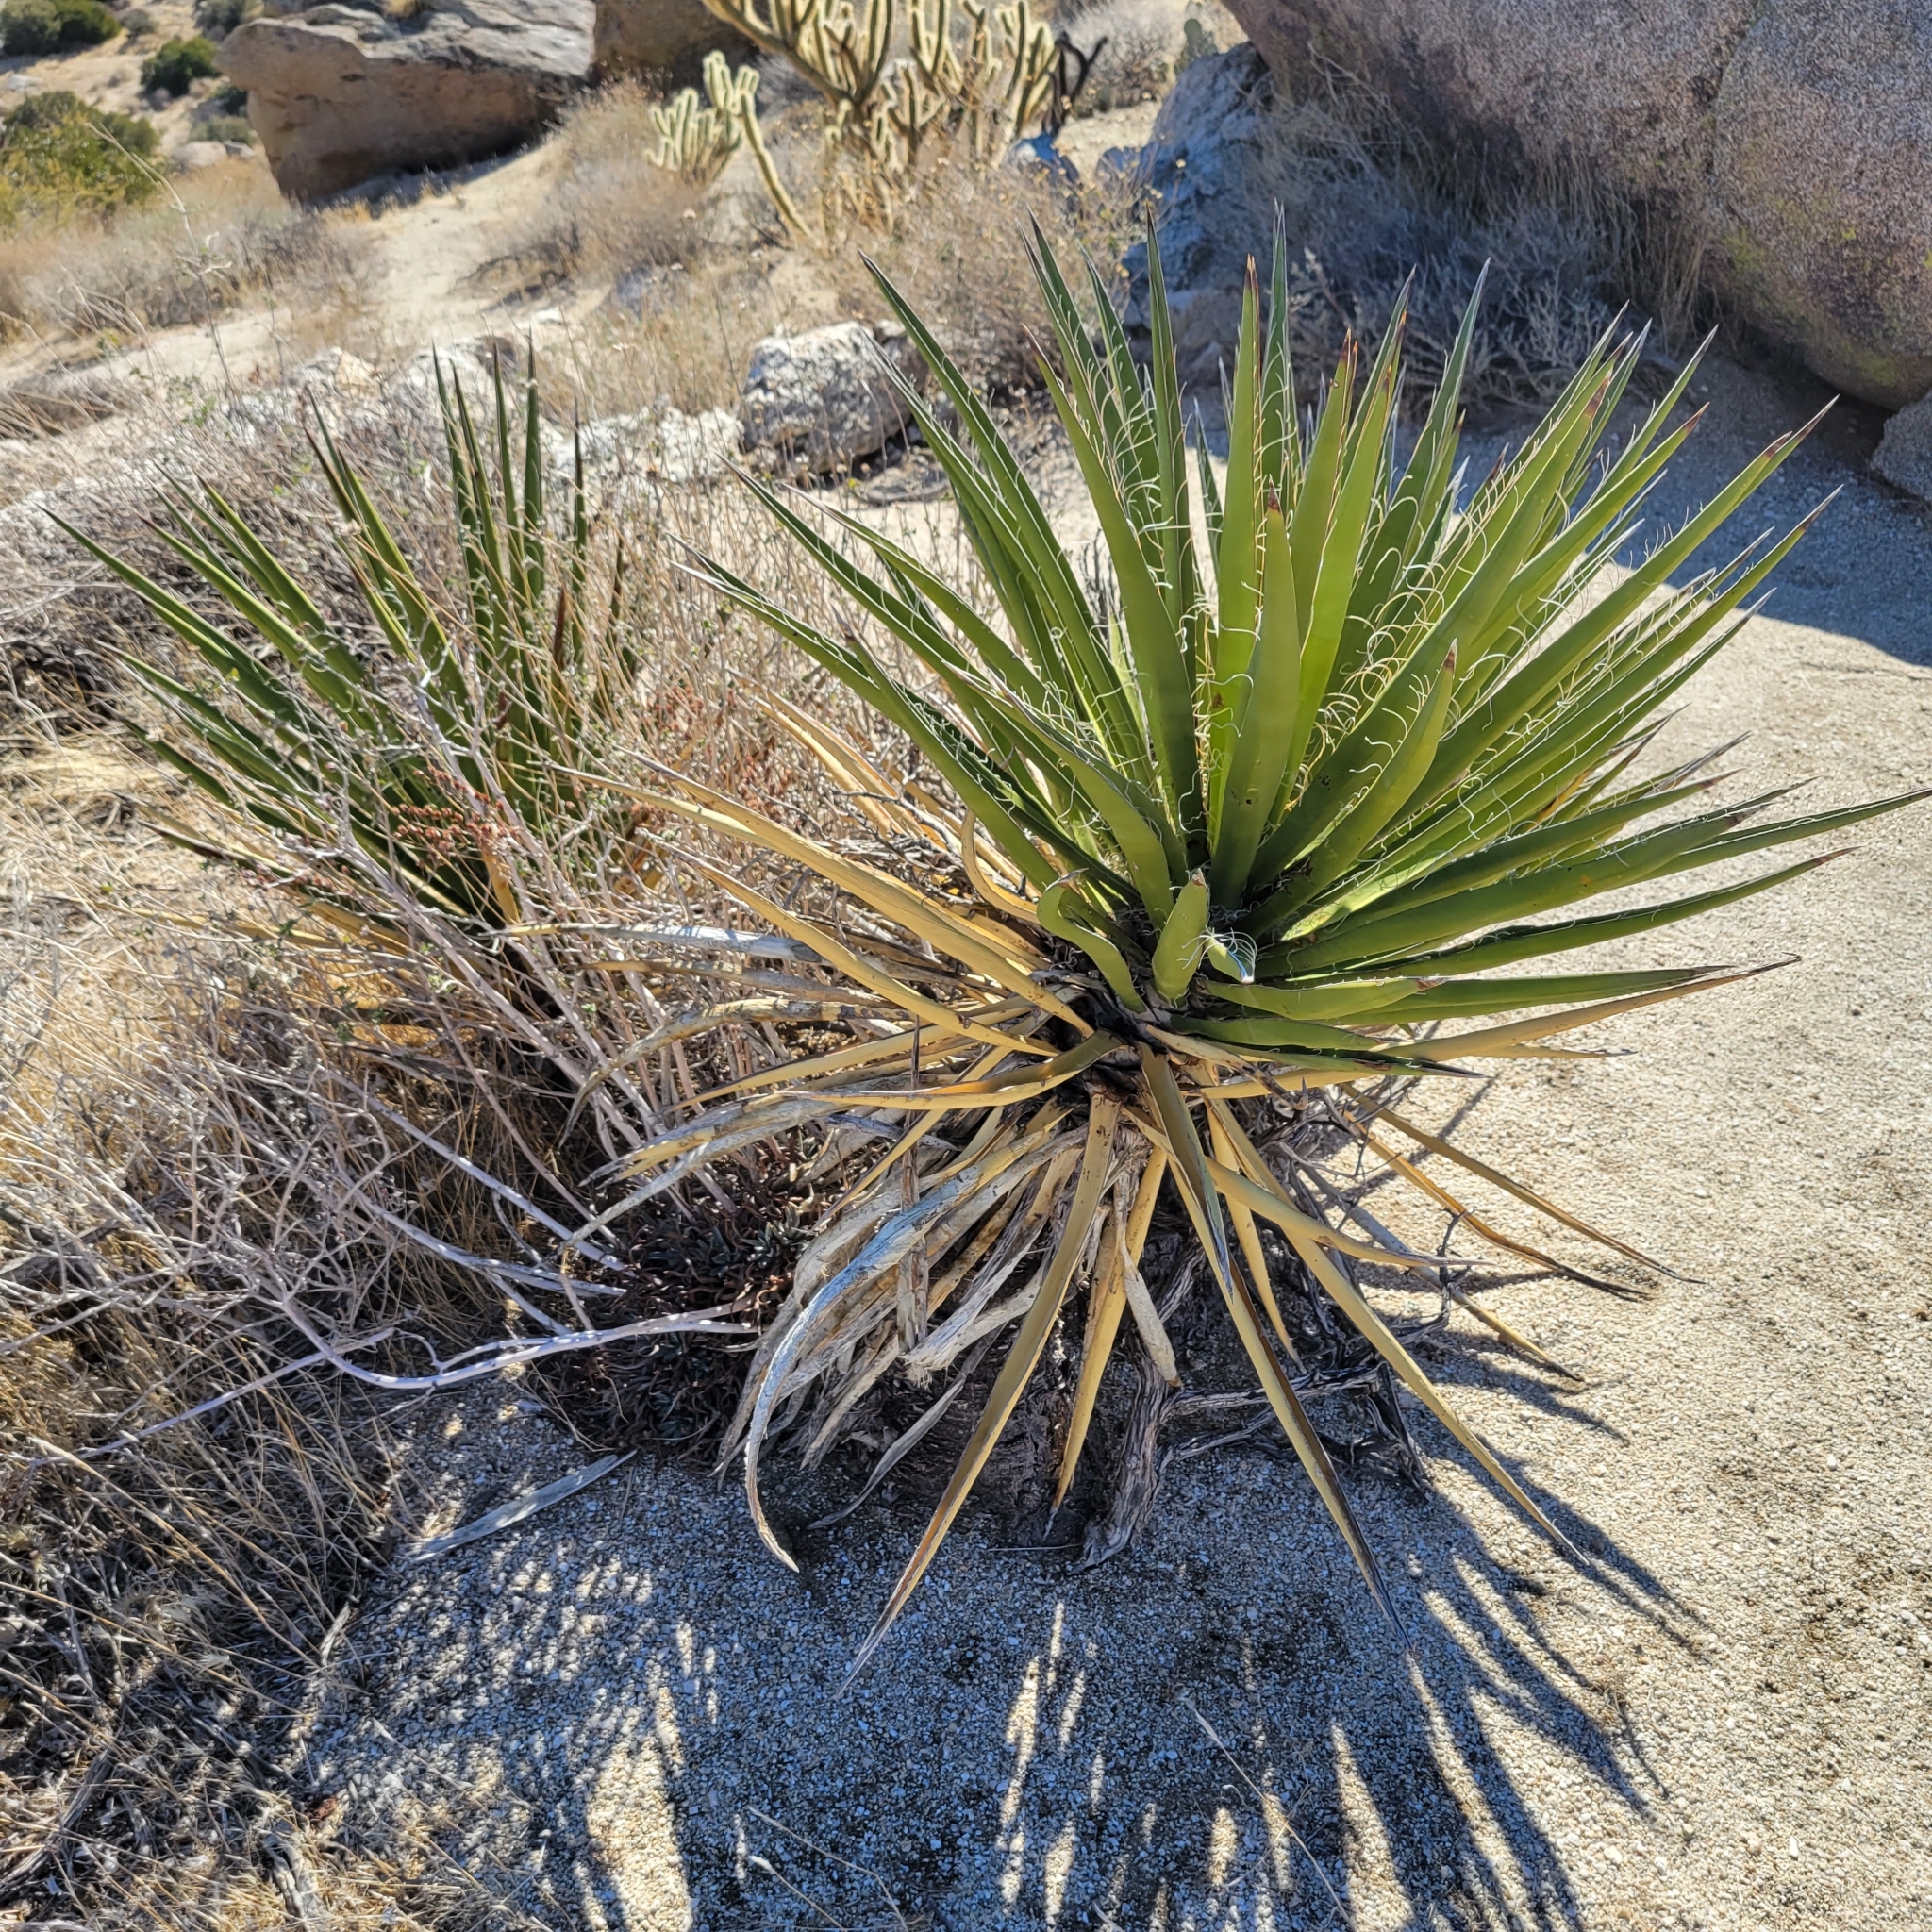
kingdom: Plantae
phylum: Tracheophyta
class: Liliopsida
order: Asparagales
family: Asparagaceae
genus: Yucca
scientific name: Yucca schidigera
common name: Mojave yucca
